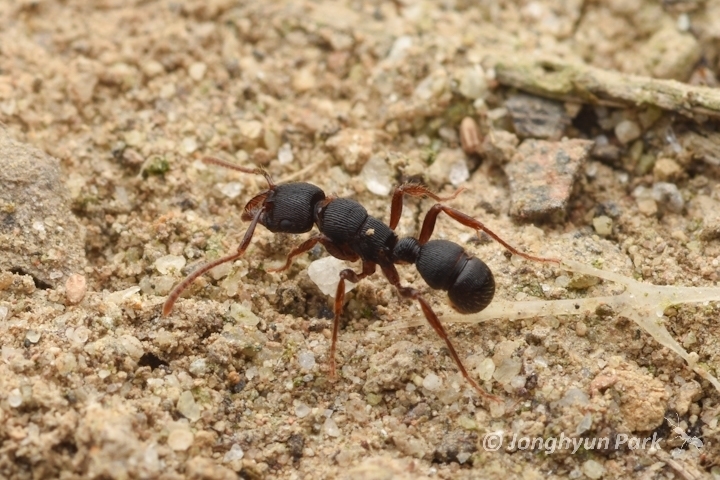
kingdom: Animalia
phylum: Arthropoda
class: Insecta
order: Hymenoptera
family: Formicidae
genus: Poneracantha
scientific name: Poneracantha
